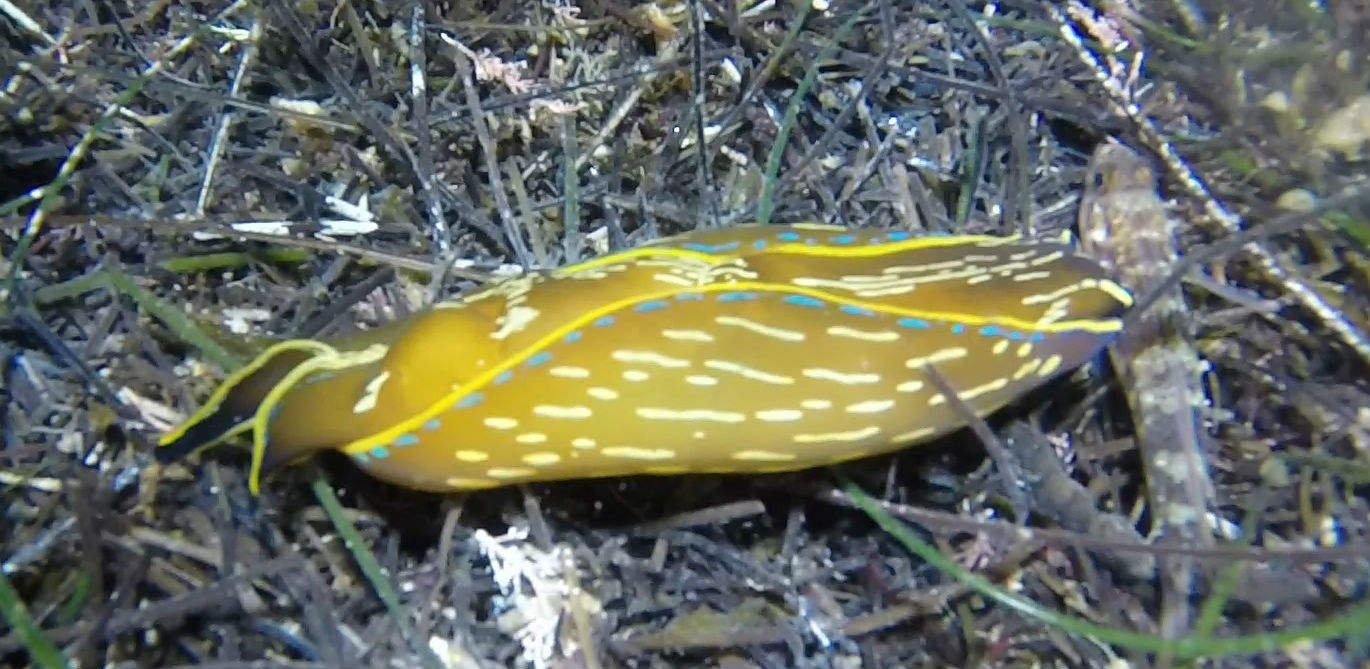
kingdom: Animalia
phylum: Mollusca
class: Gastropoda
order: Cephalaspidea
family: Aglajidae
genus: Navanax
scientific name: Navanax inermis
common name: California aglaja
